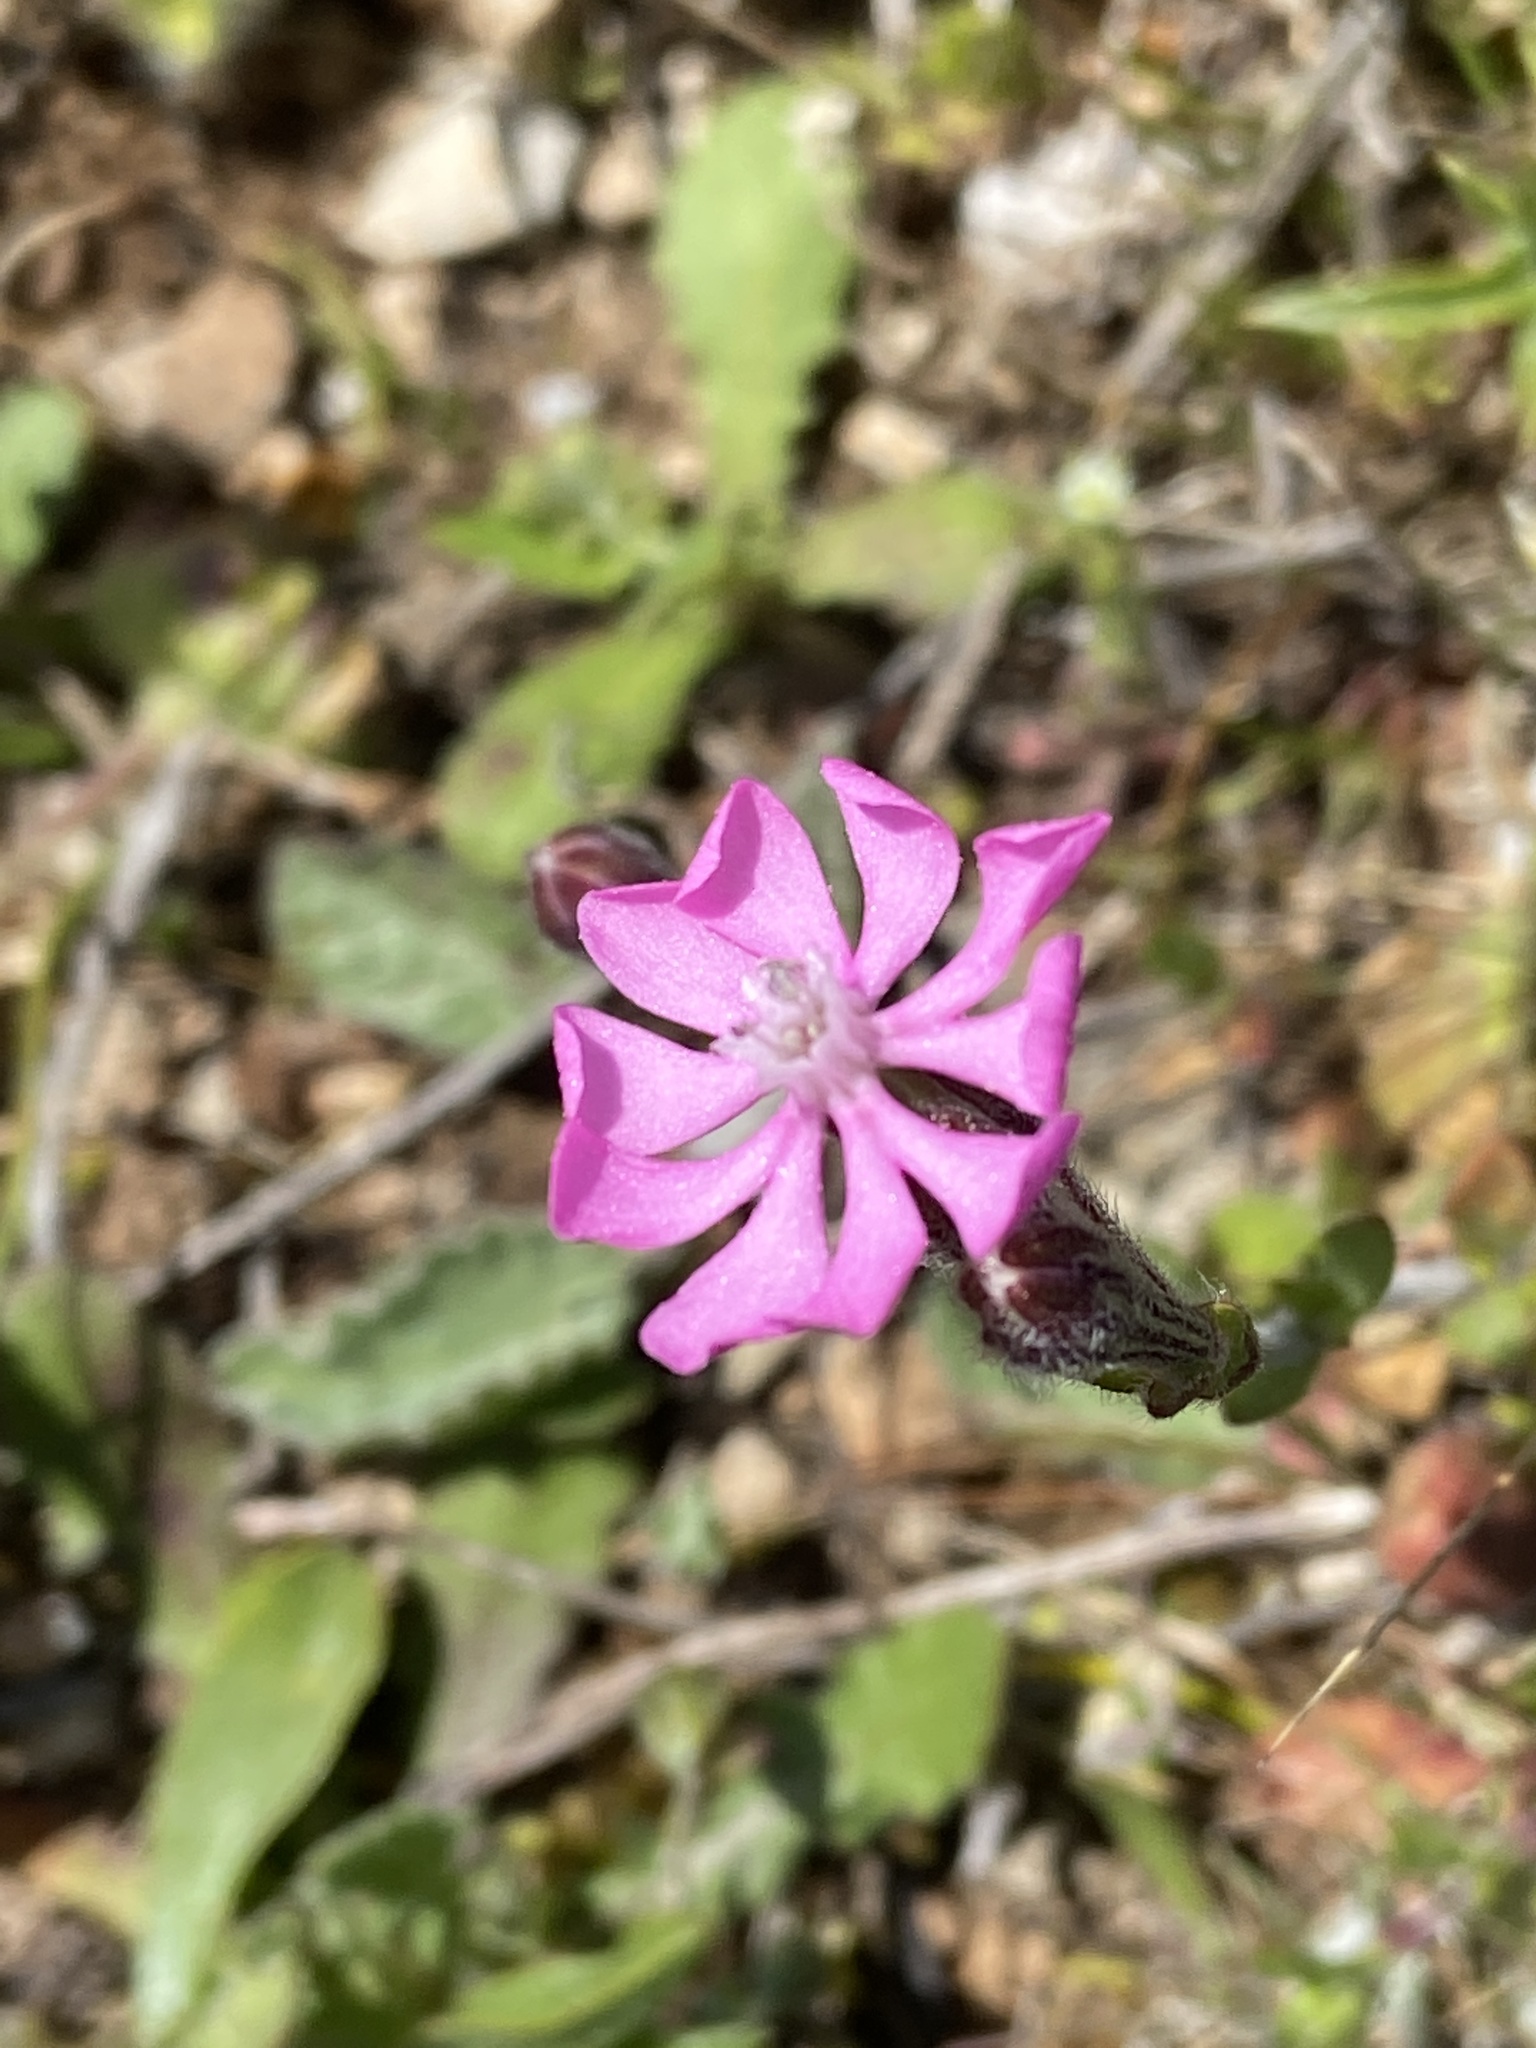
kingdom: Plantae
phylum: Tracheophyta
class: Magnoliopsida
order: Caryophyllales
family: Caryophyllaceae
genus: Silene
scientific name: Silene colorata
